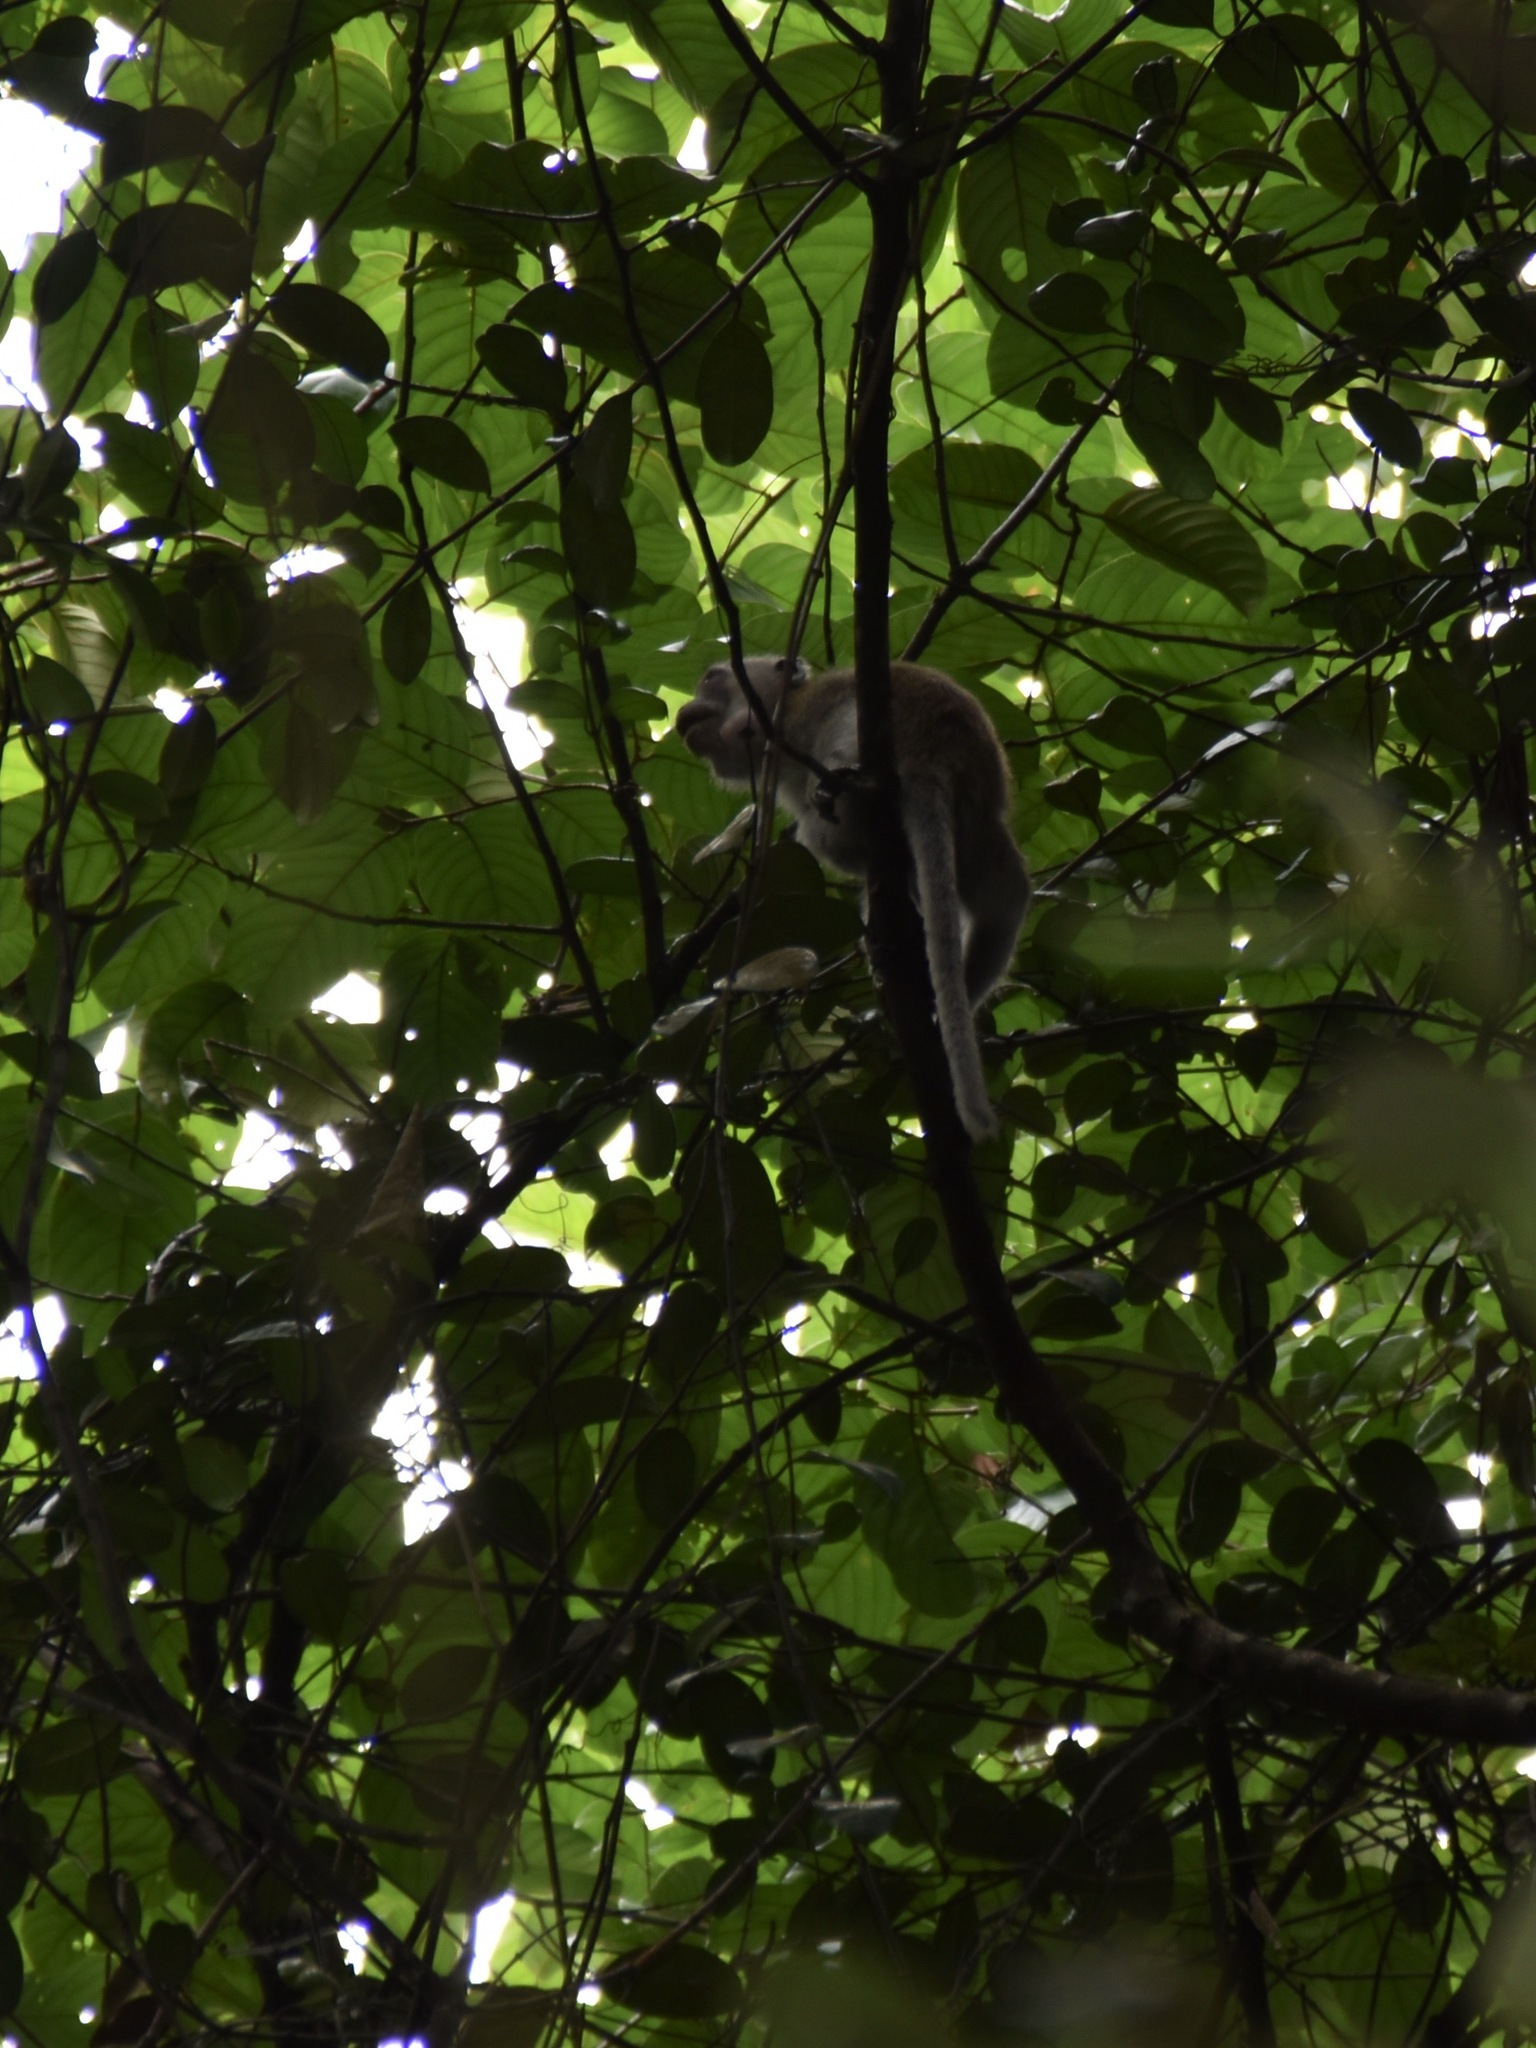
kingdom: Animalia
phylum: Chordata
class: Mammalia
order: Primates
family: Cercopithecidae
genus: Macaca
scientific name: Macaca fascicularis
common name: Crab-eating macaque
